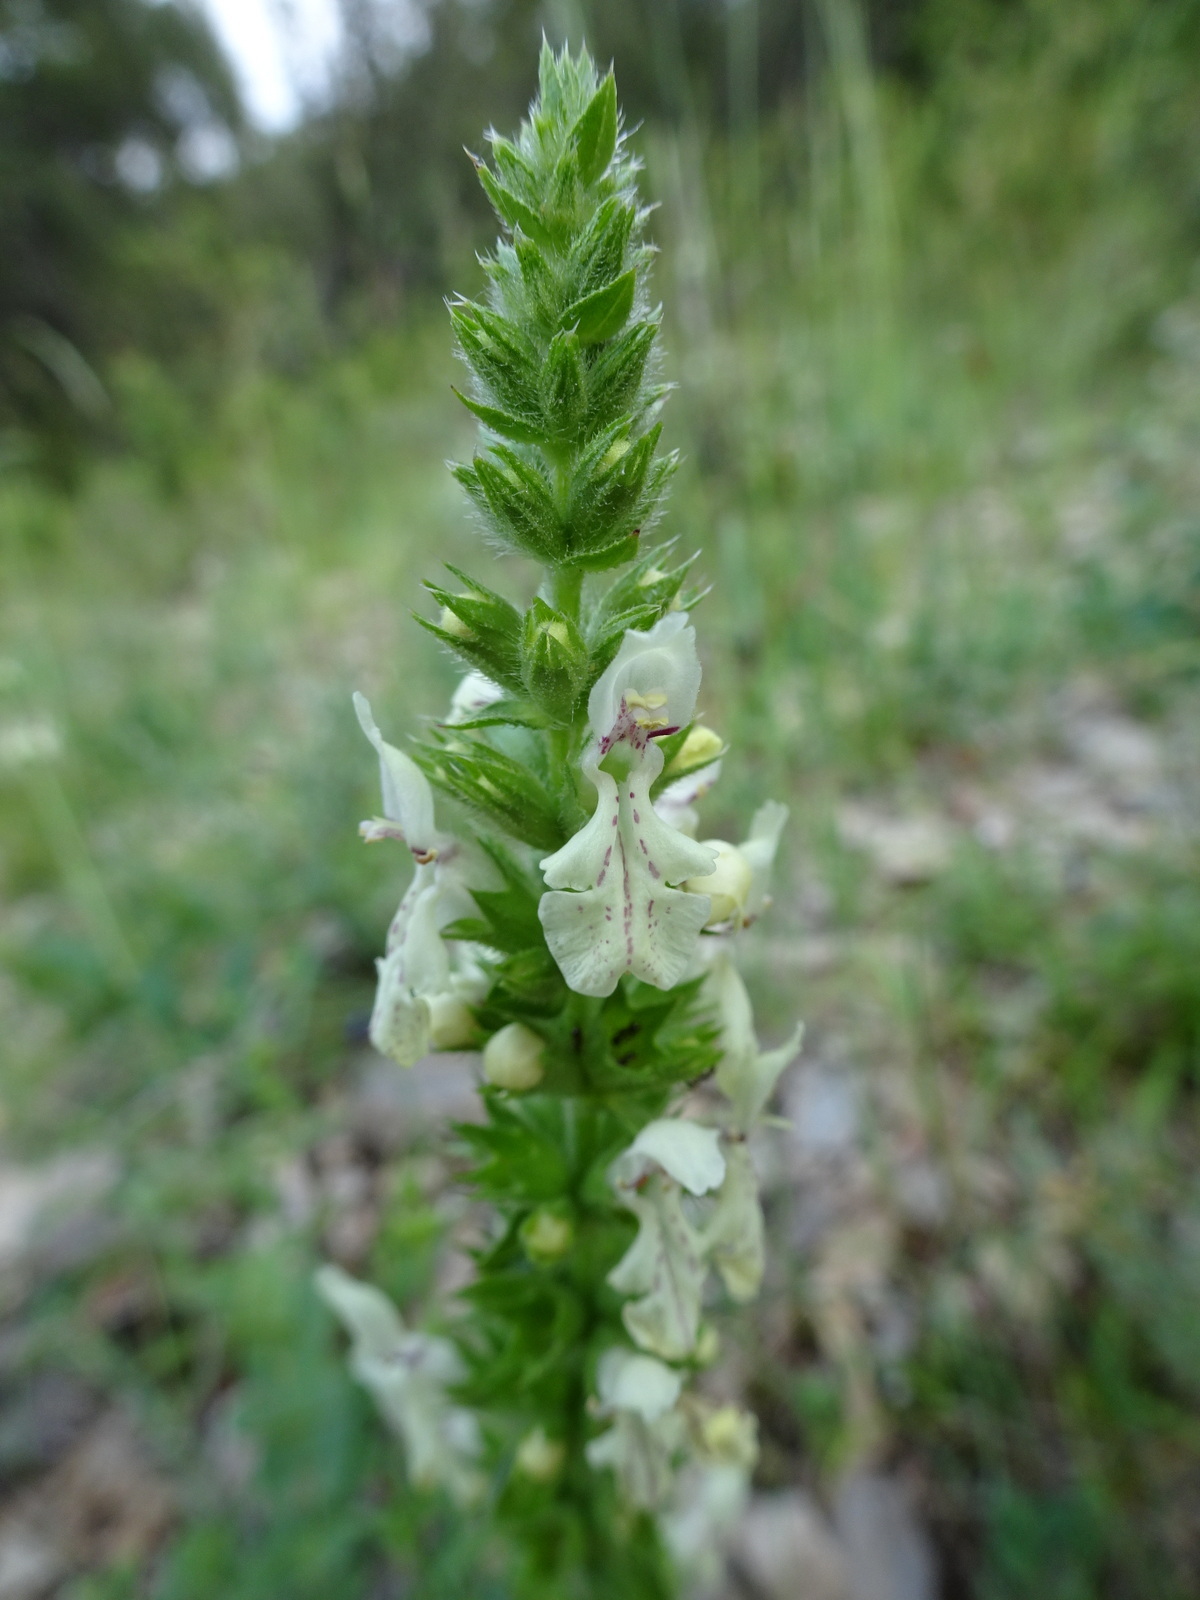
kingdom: Plantae
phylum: Tracheophyta
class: Magnoliopsida
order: Lamiales
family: Lamiaceae
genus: Stachys
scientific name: Stachys recta
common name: Perennial yellow-woundwort
